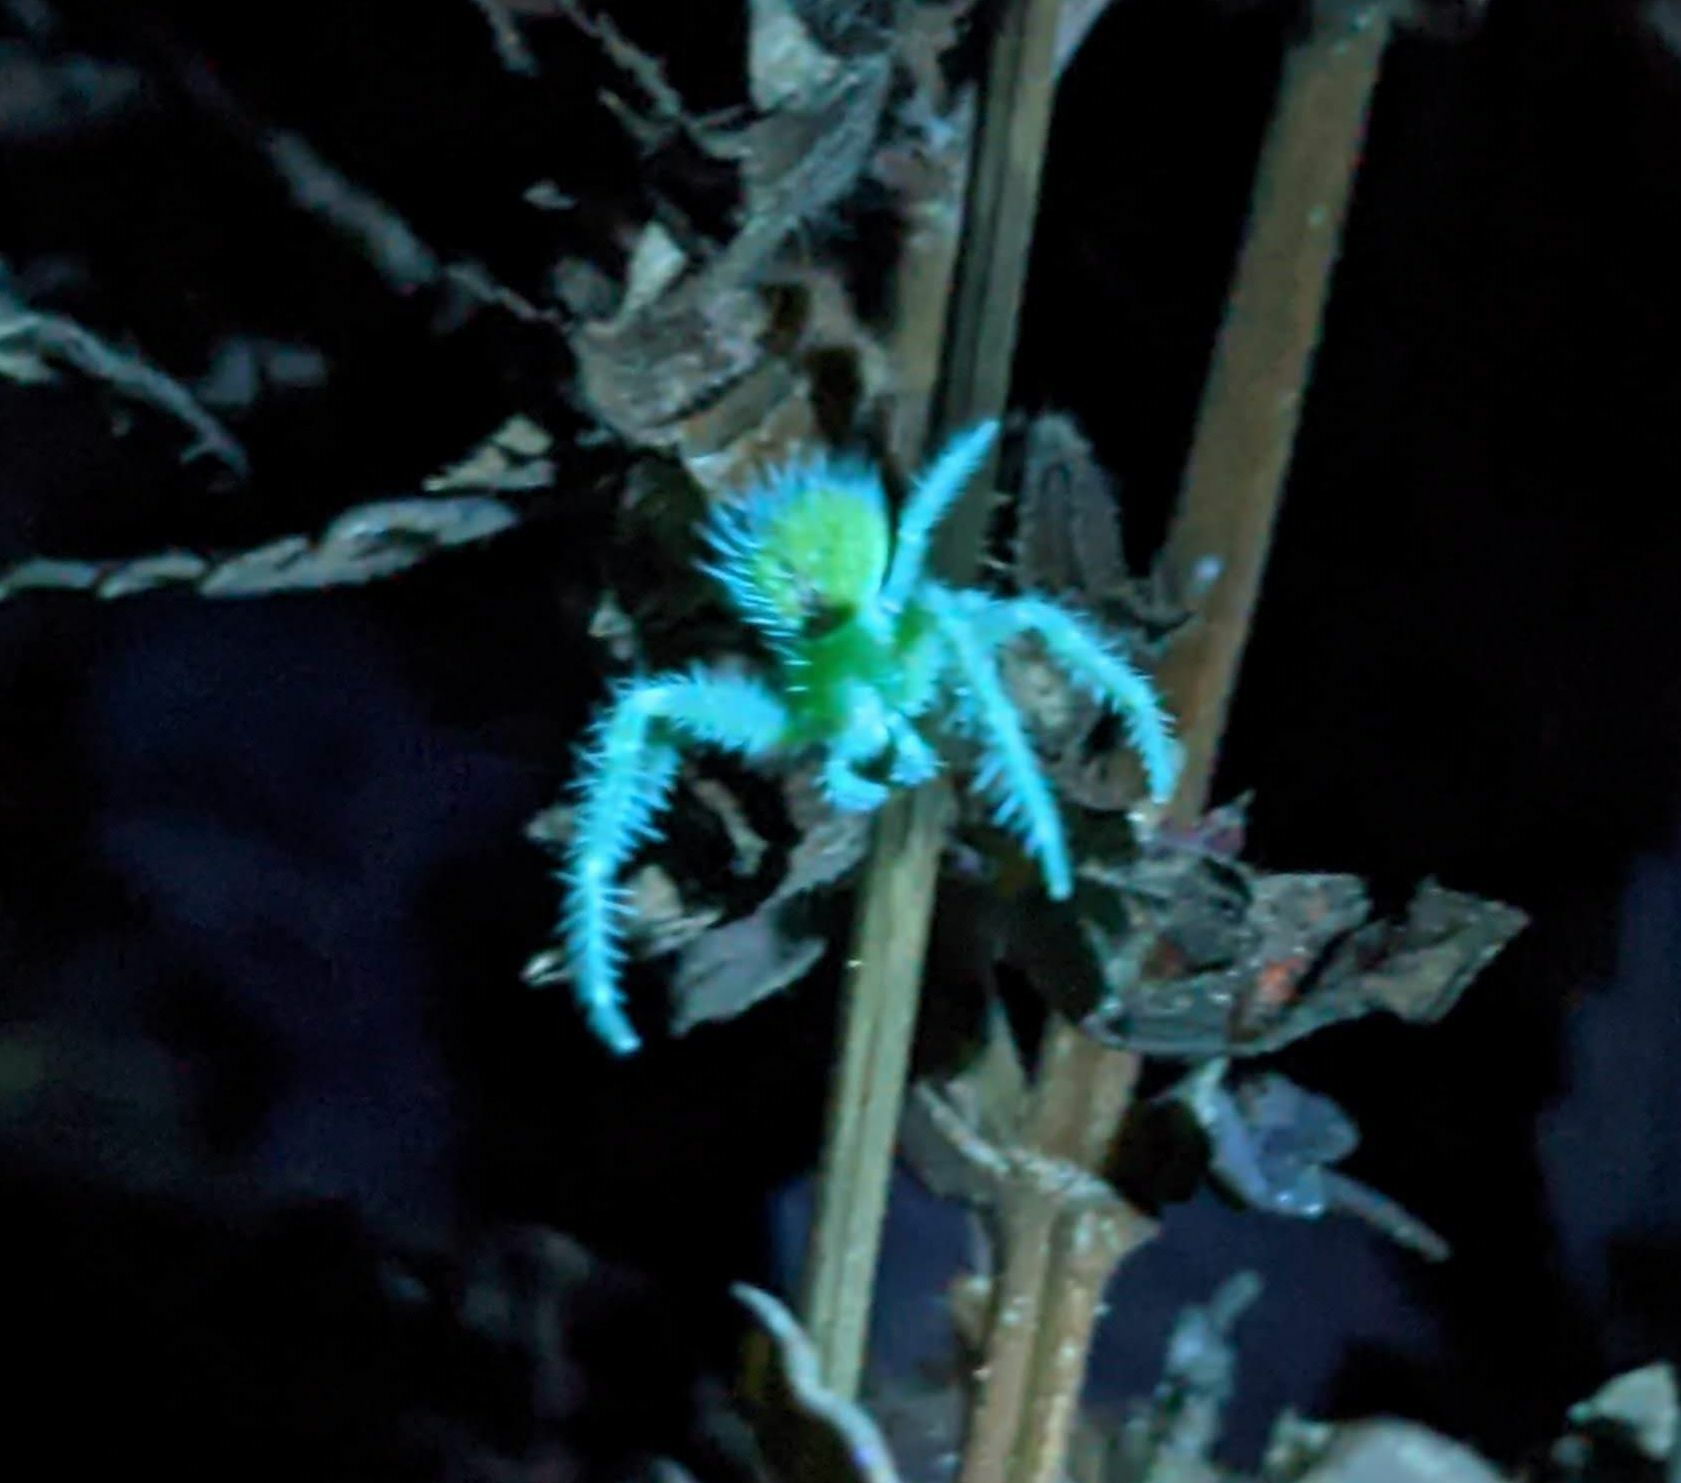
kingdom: Animalia
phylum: Arthropoda
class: Arachnida
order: Araneae
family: Thomisidae
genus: Heriaeus
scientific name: Heriaeus hirtus
